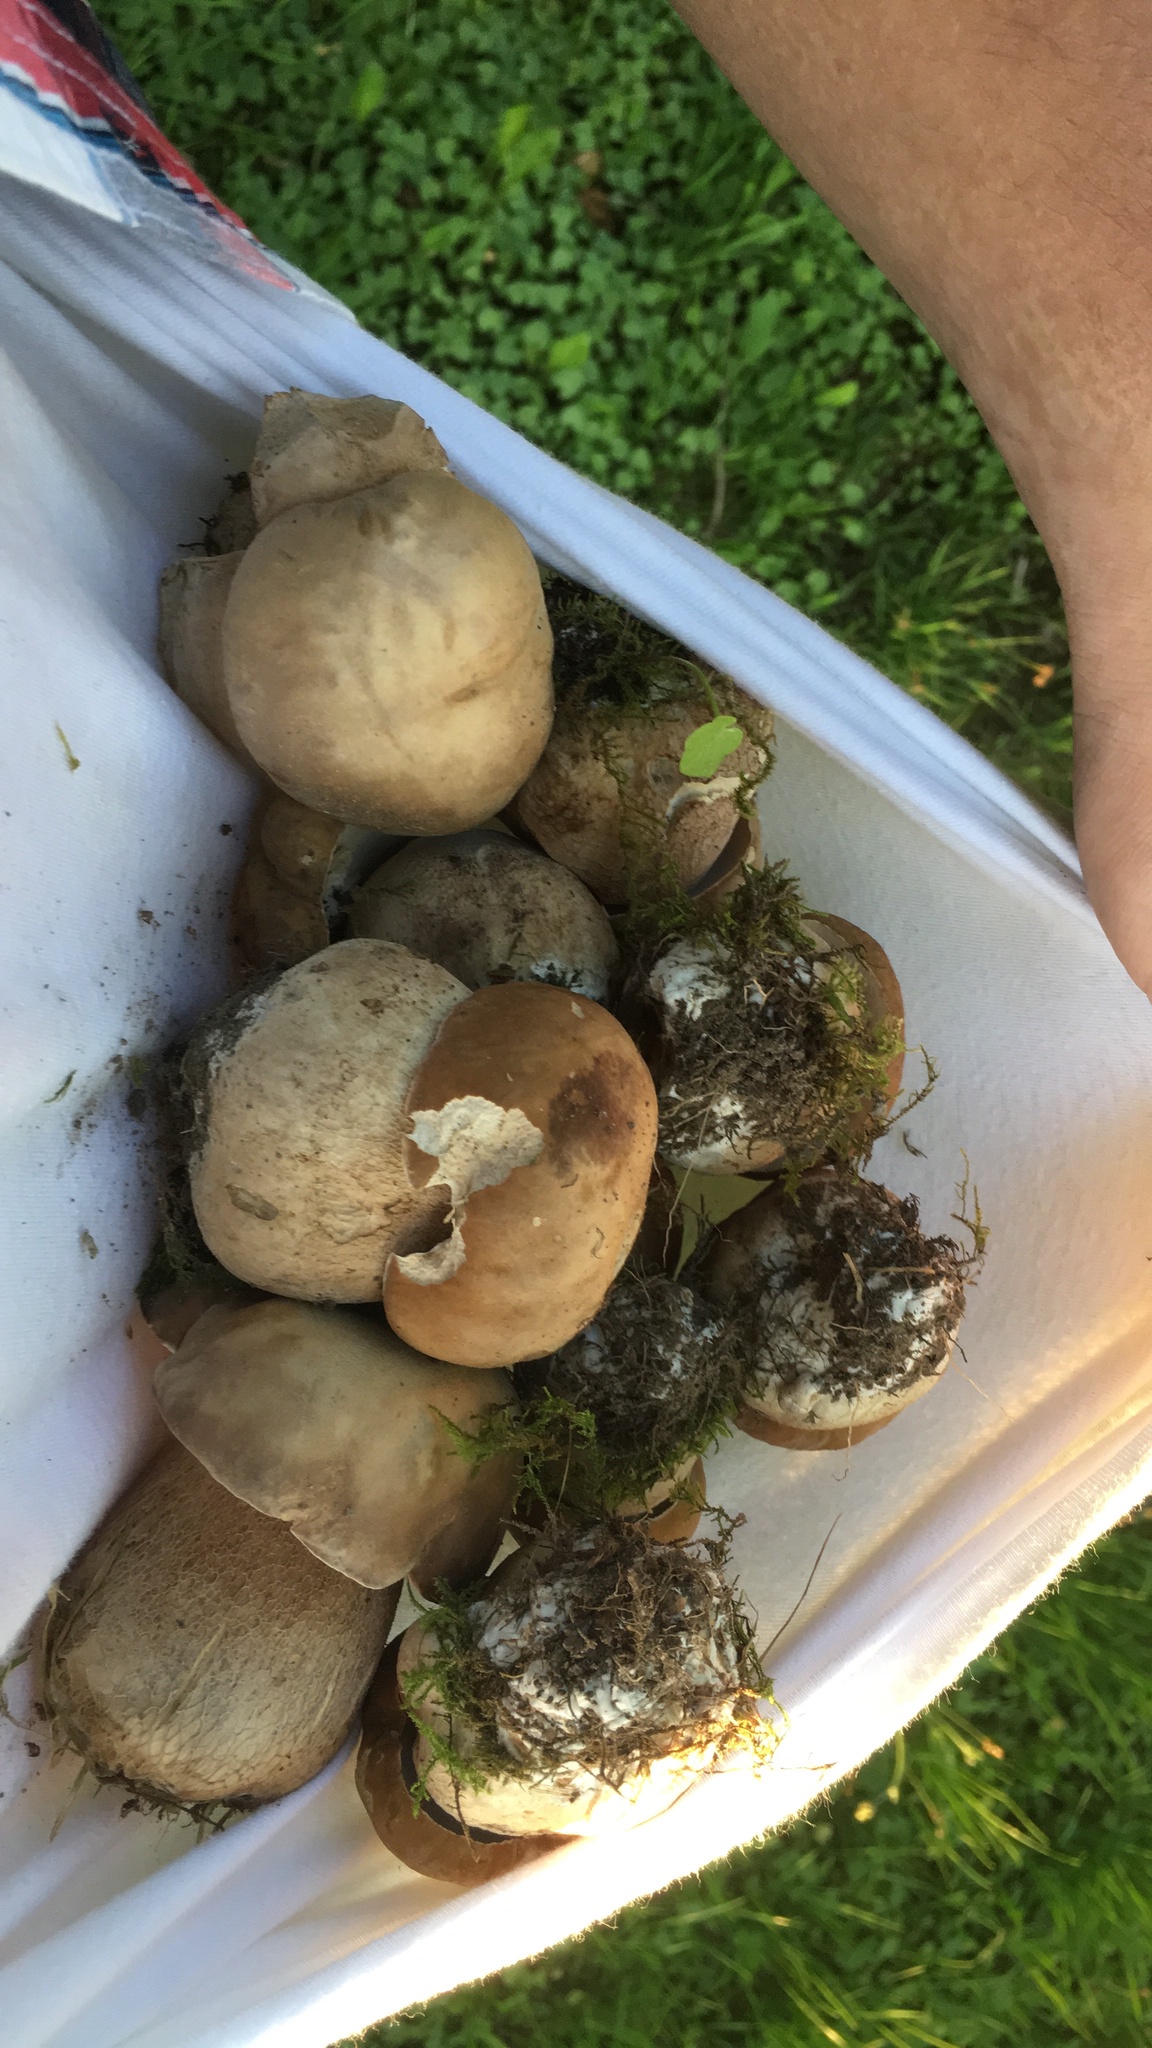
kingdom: Fungi
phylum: Basidiomycota
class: Agaricomycetes
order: Boletales
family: Boletaceae
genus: Boletus
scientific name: Boletus reticulatus
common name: Summer bolete
